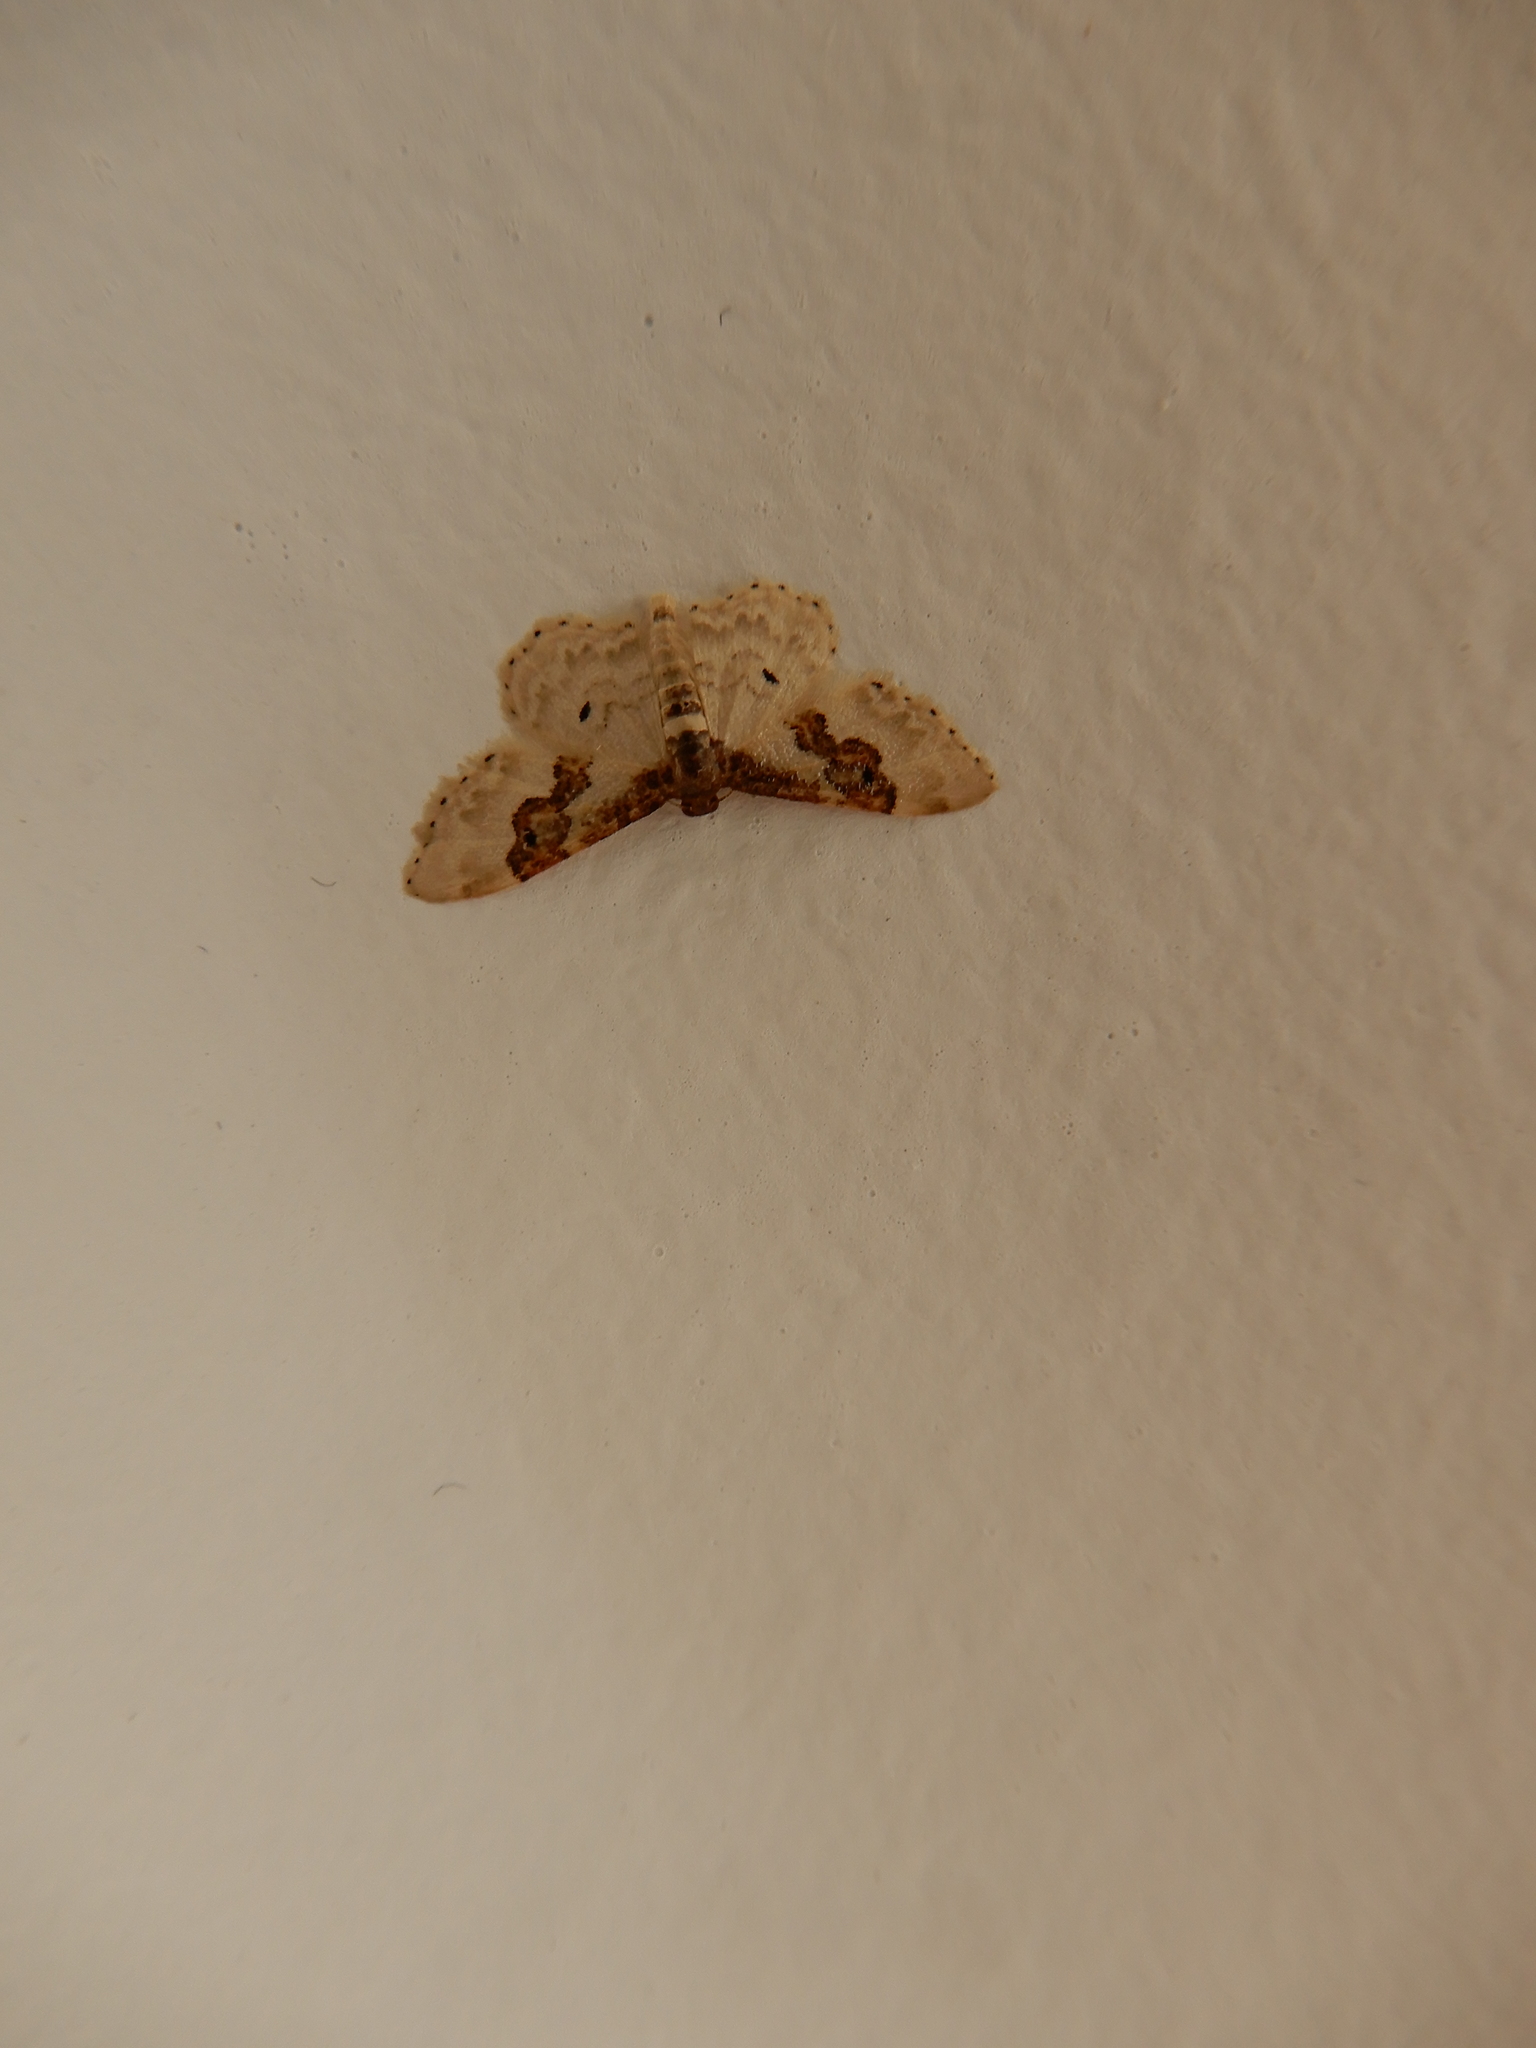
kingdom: Animalia
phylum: Arthropoda
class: Insecta
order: Lepidoptera
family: Geometridae
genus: Idaea
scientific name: Idaea rusticata
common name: Least carpet
